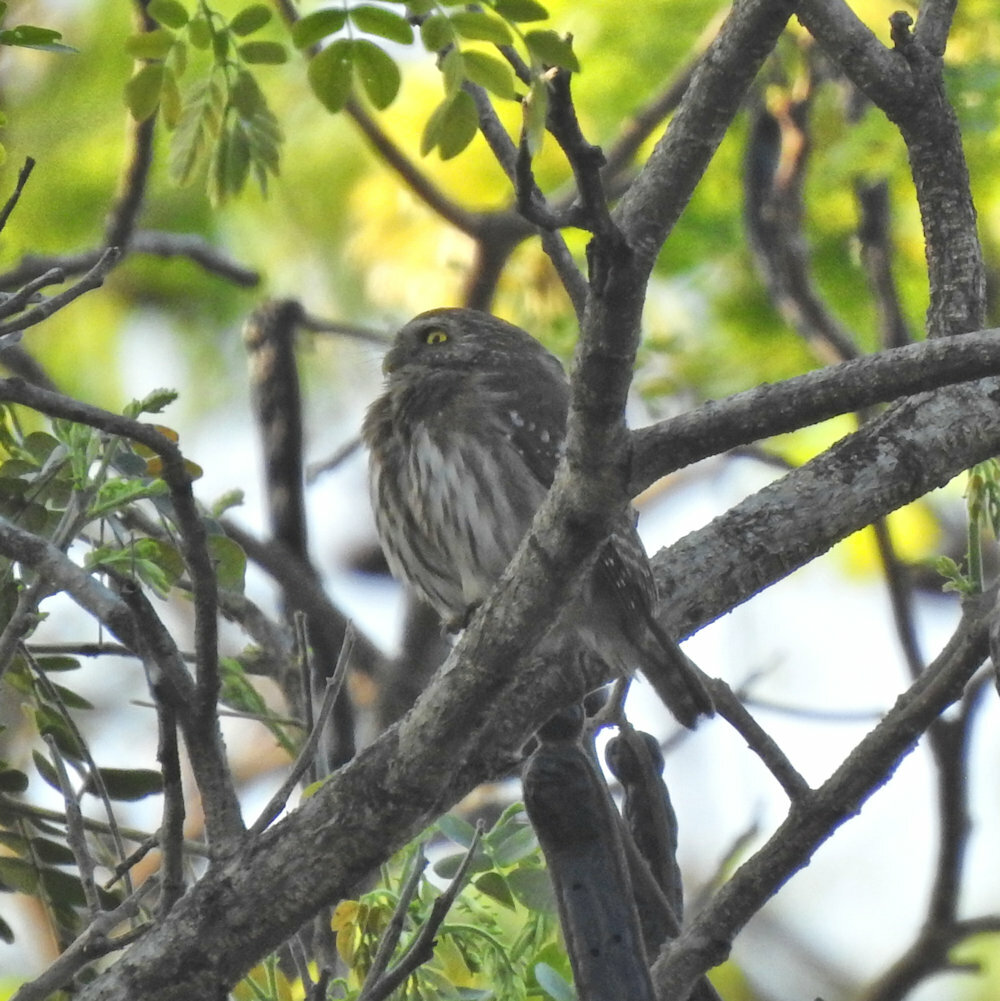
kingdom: Animalia
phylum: Chordata
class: Aves
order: Strigiformes
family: Strigidae
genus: Glaucidium
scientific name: Glaucidium brasilianum
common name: Ferruginous pygmy-owl
